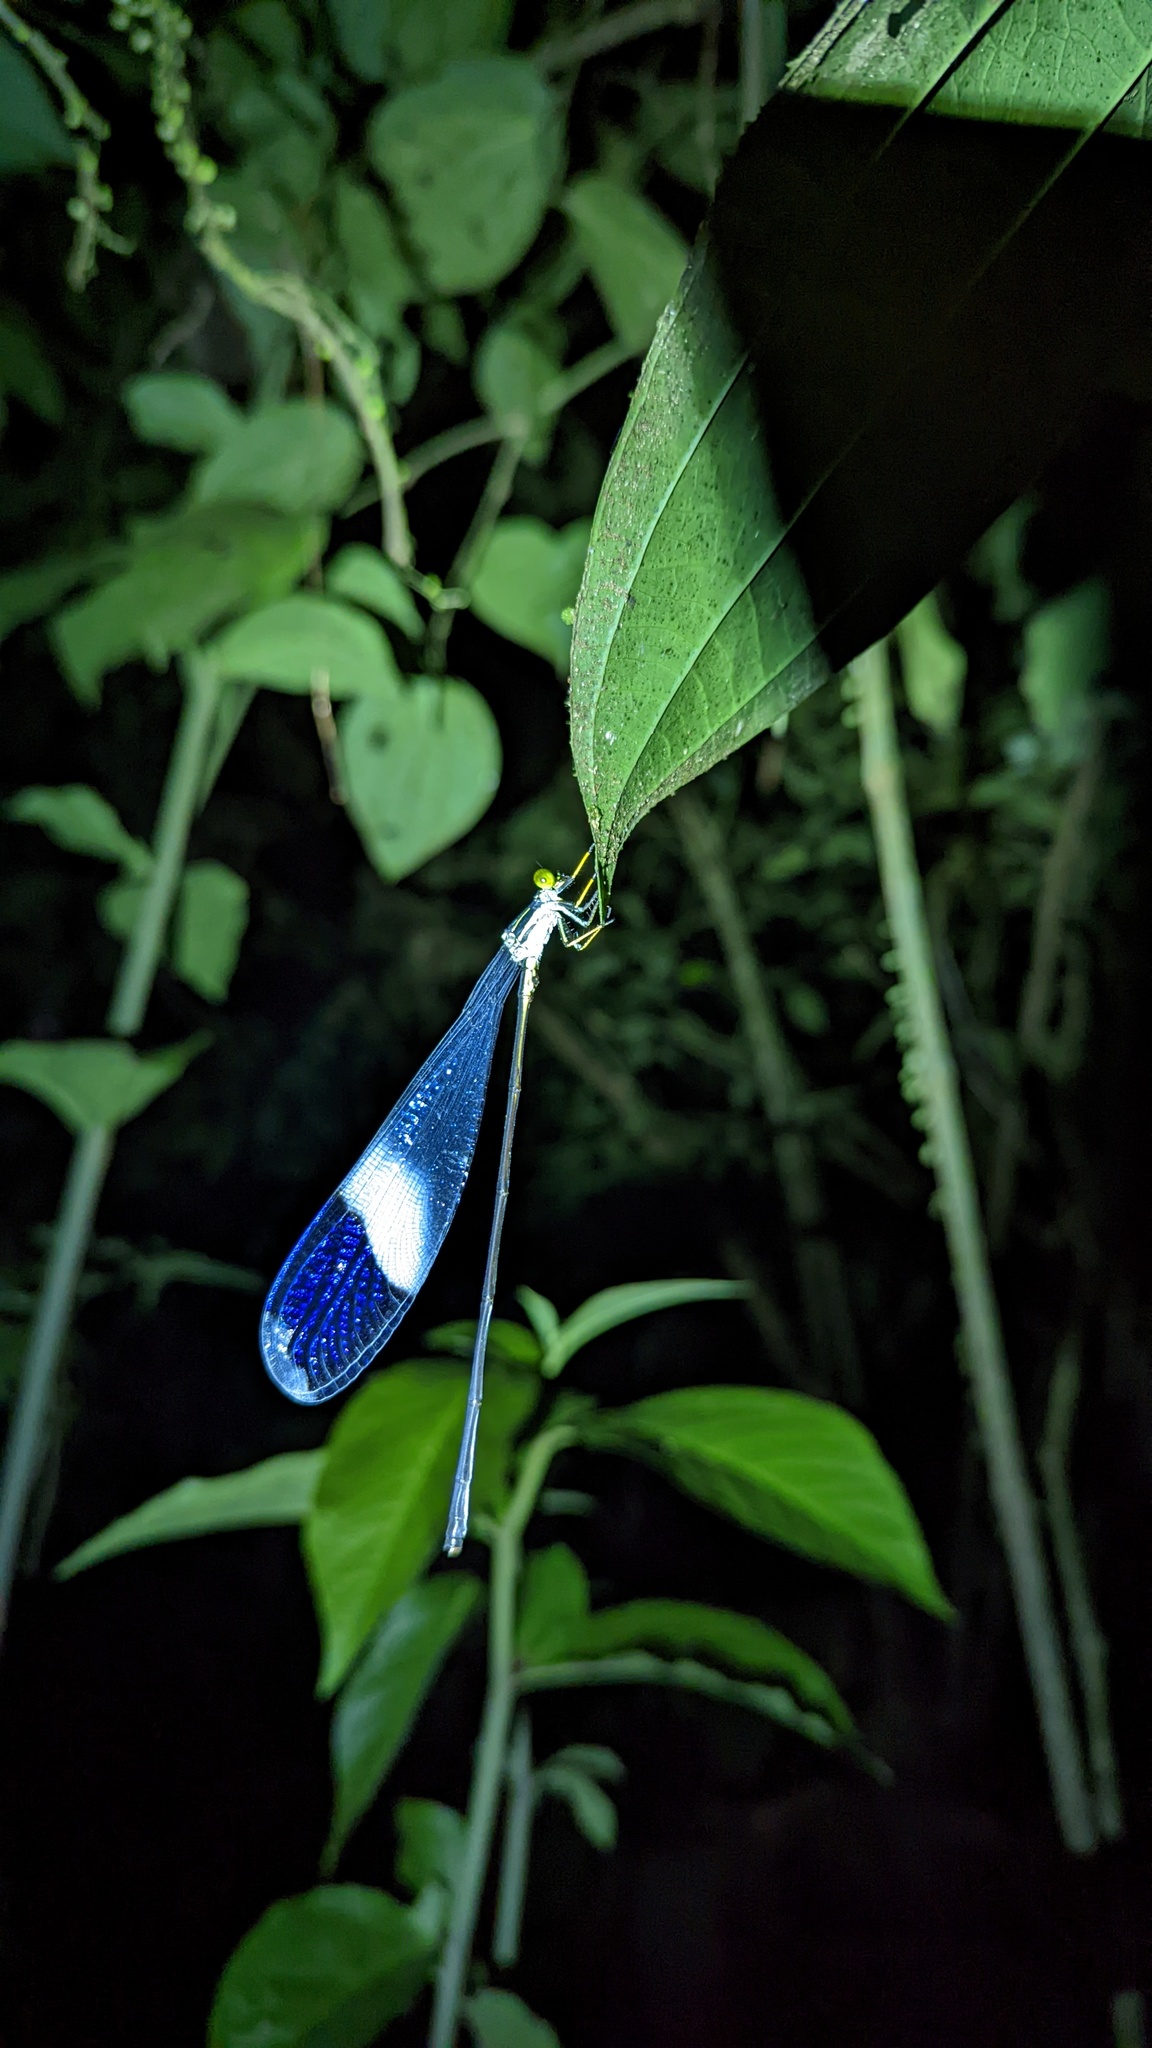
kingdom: Animalia
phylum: Arthropoda
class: Insecta
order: Odonata
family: Coenagrionidae
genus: Megaloprepus
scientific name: Megaloprepus caerulatus
